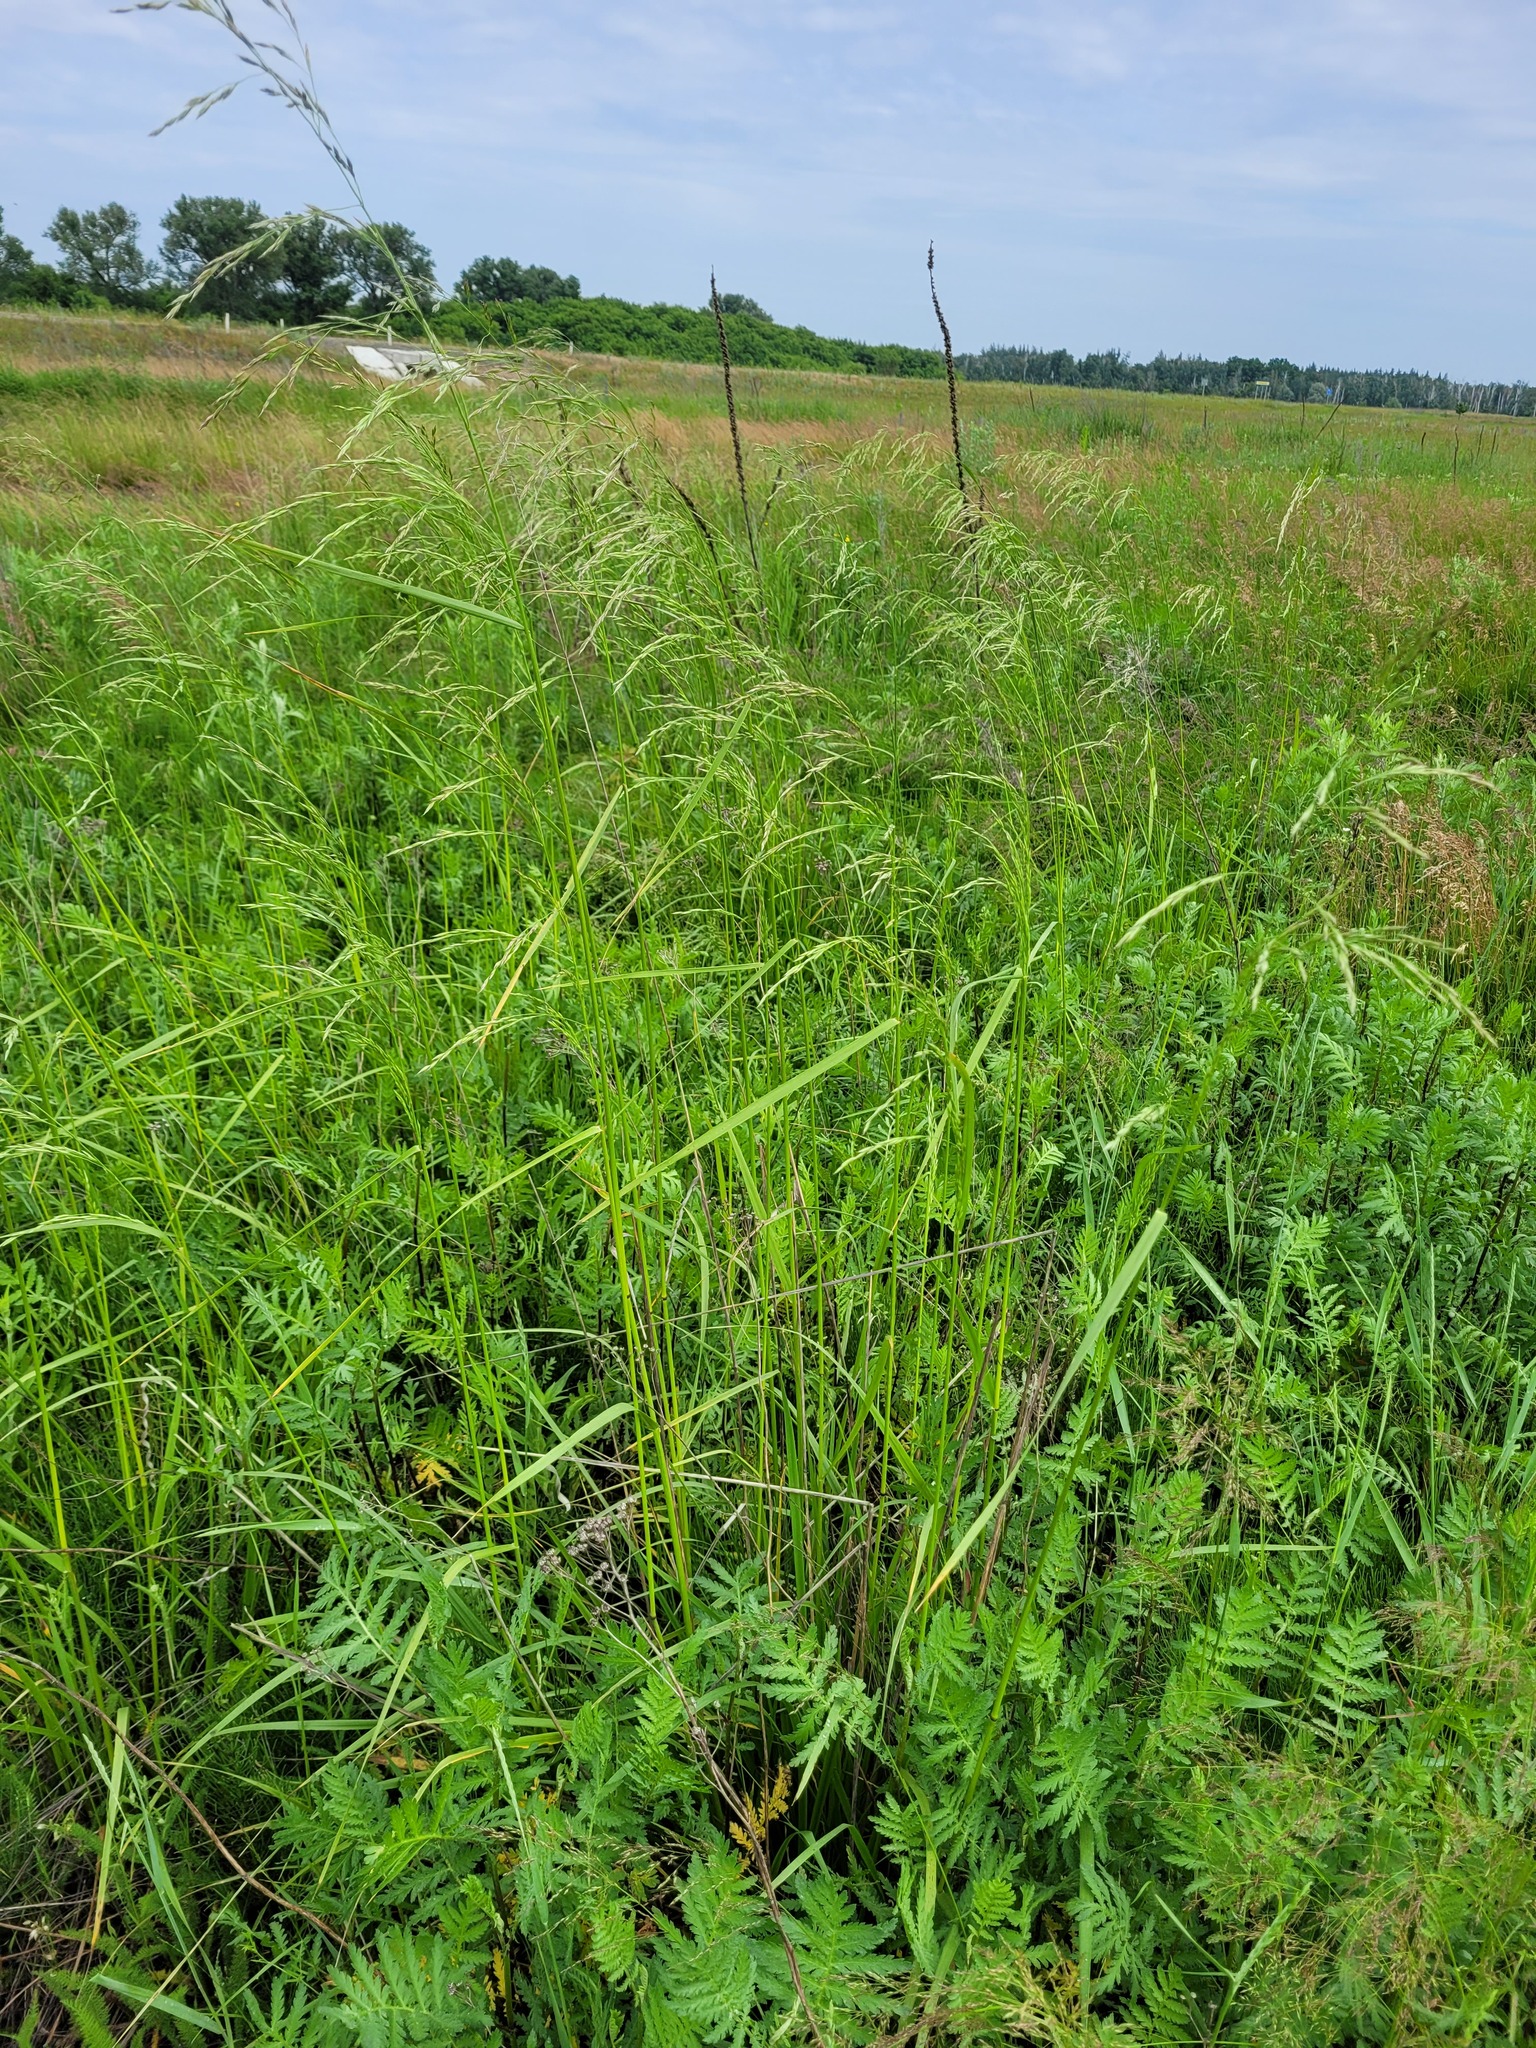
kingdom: Plantae
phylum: Tracheophyta
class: Liliopsida
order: Poales
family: Poaceae
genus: Lolium
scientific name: Lolium arundinaceum
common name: Reed fescue
